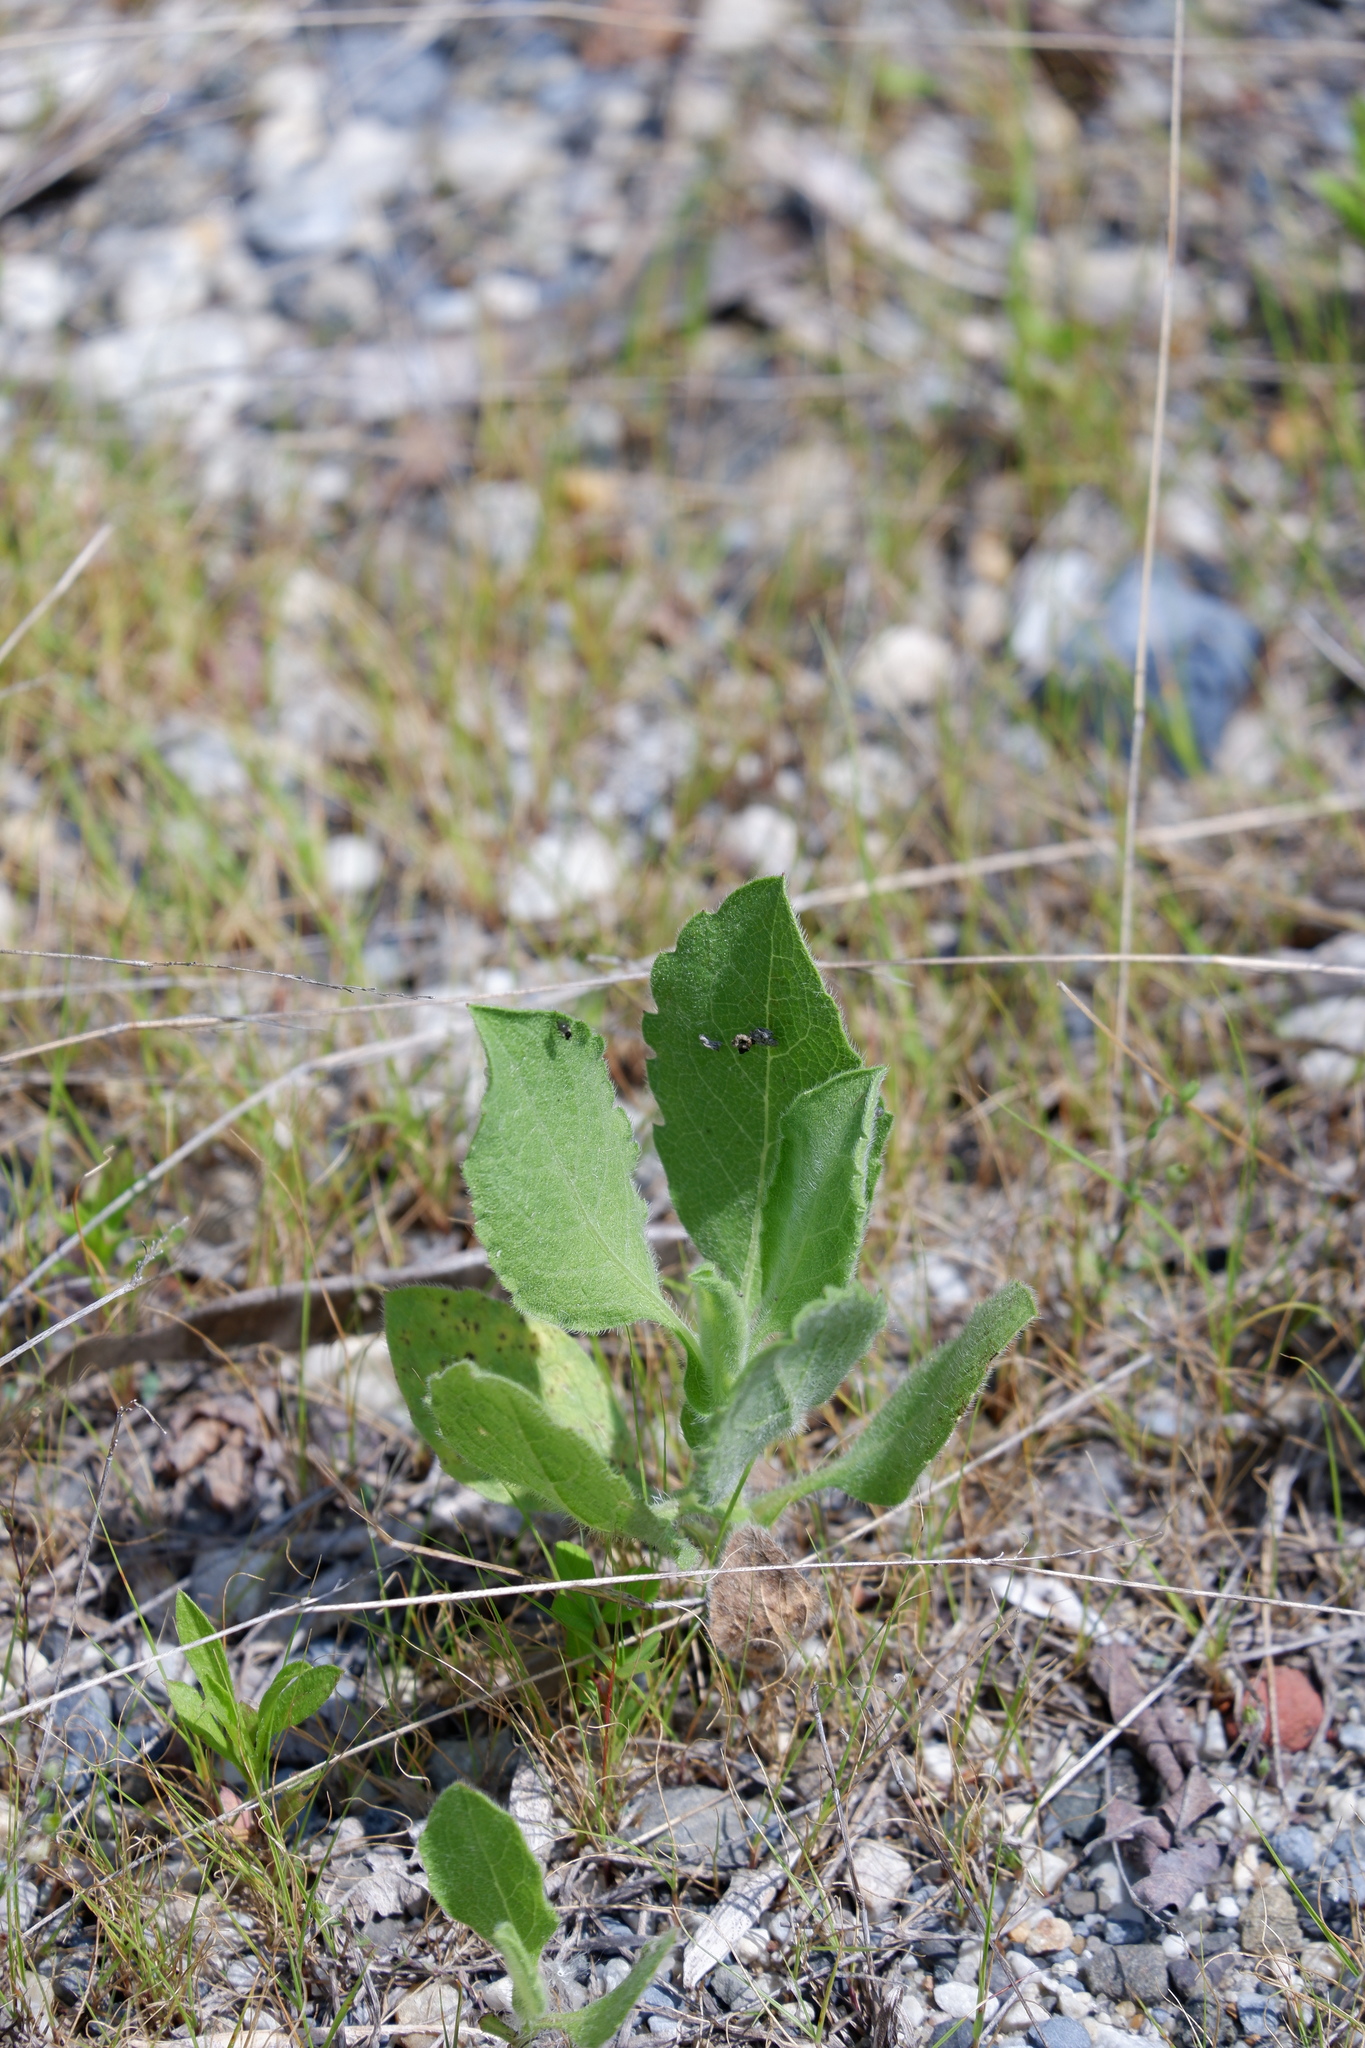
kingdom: Plantae
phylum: Tracheophyta
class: Magnoliopsida
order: Asterales
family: Asteraceae
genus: Heterotheca
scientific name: Heterotheca subaxillaris
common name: Camphorweed
